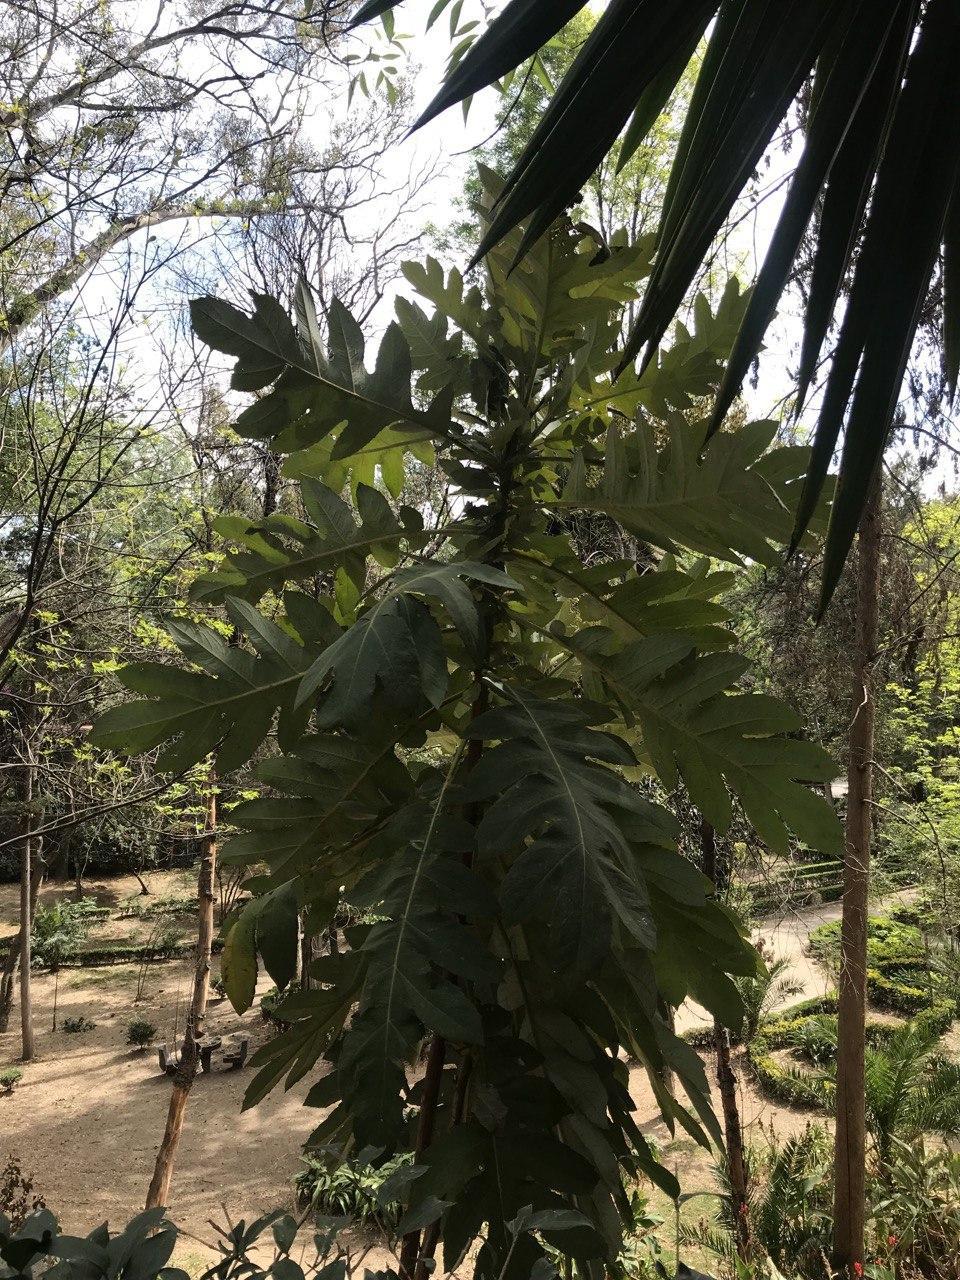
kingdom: Plantae
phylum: Tracheophyta
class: Magnoliopsida
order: Ranunculales
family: Papaveraceae
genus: Bocconia
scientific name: Bocconia arborea
